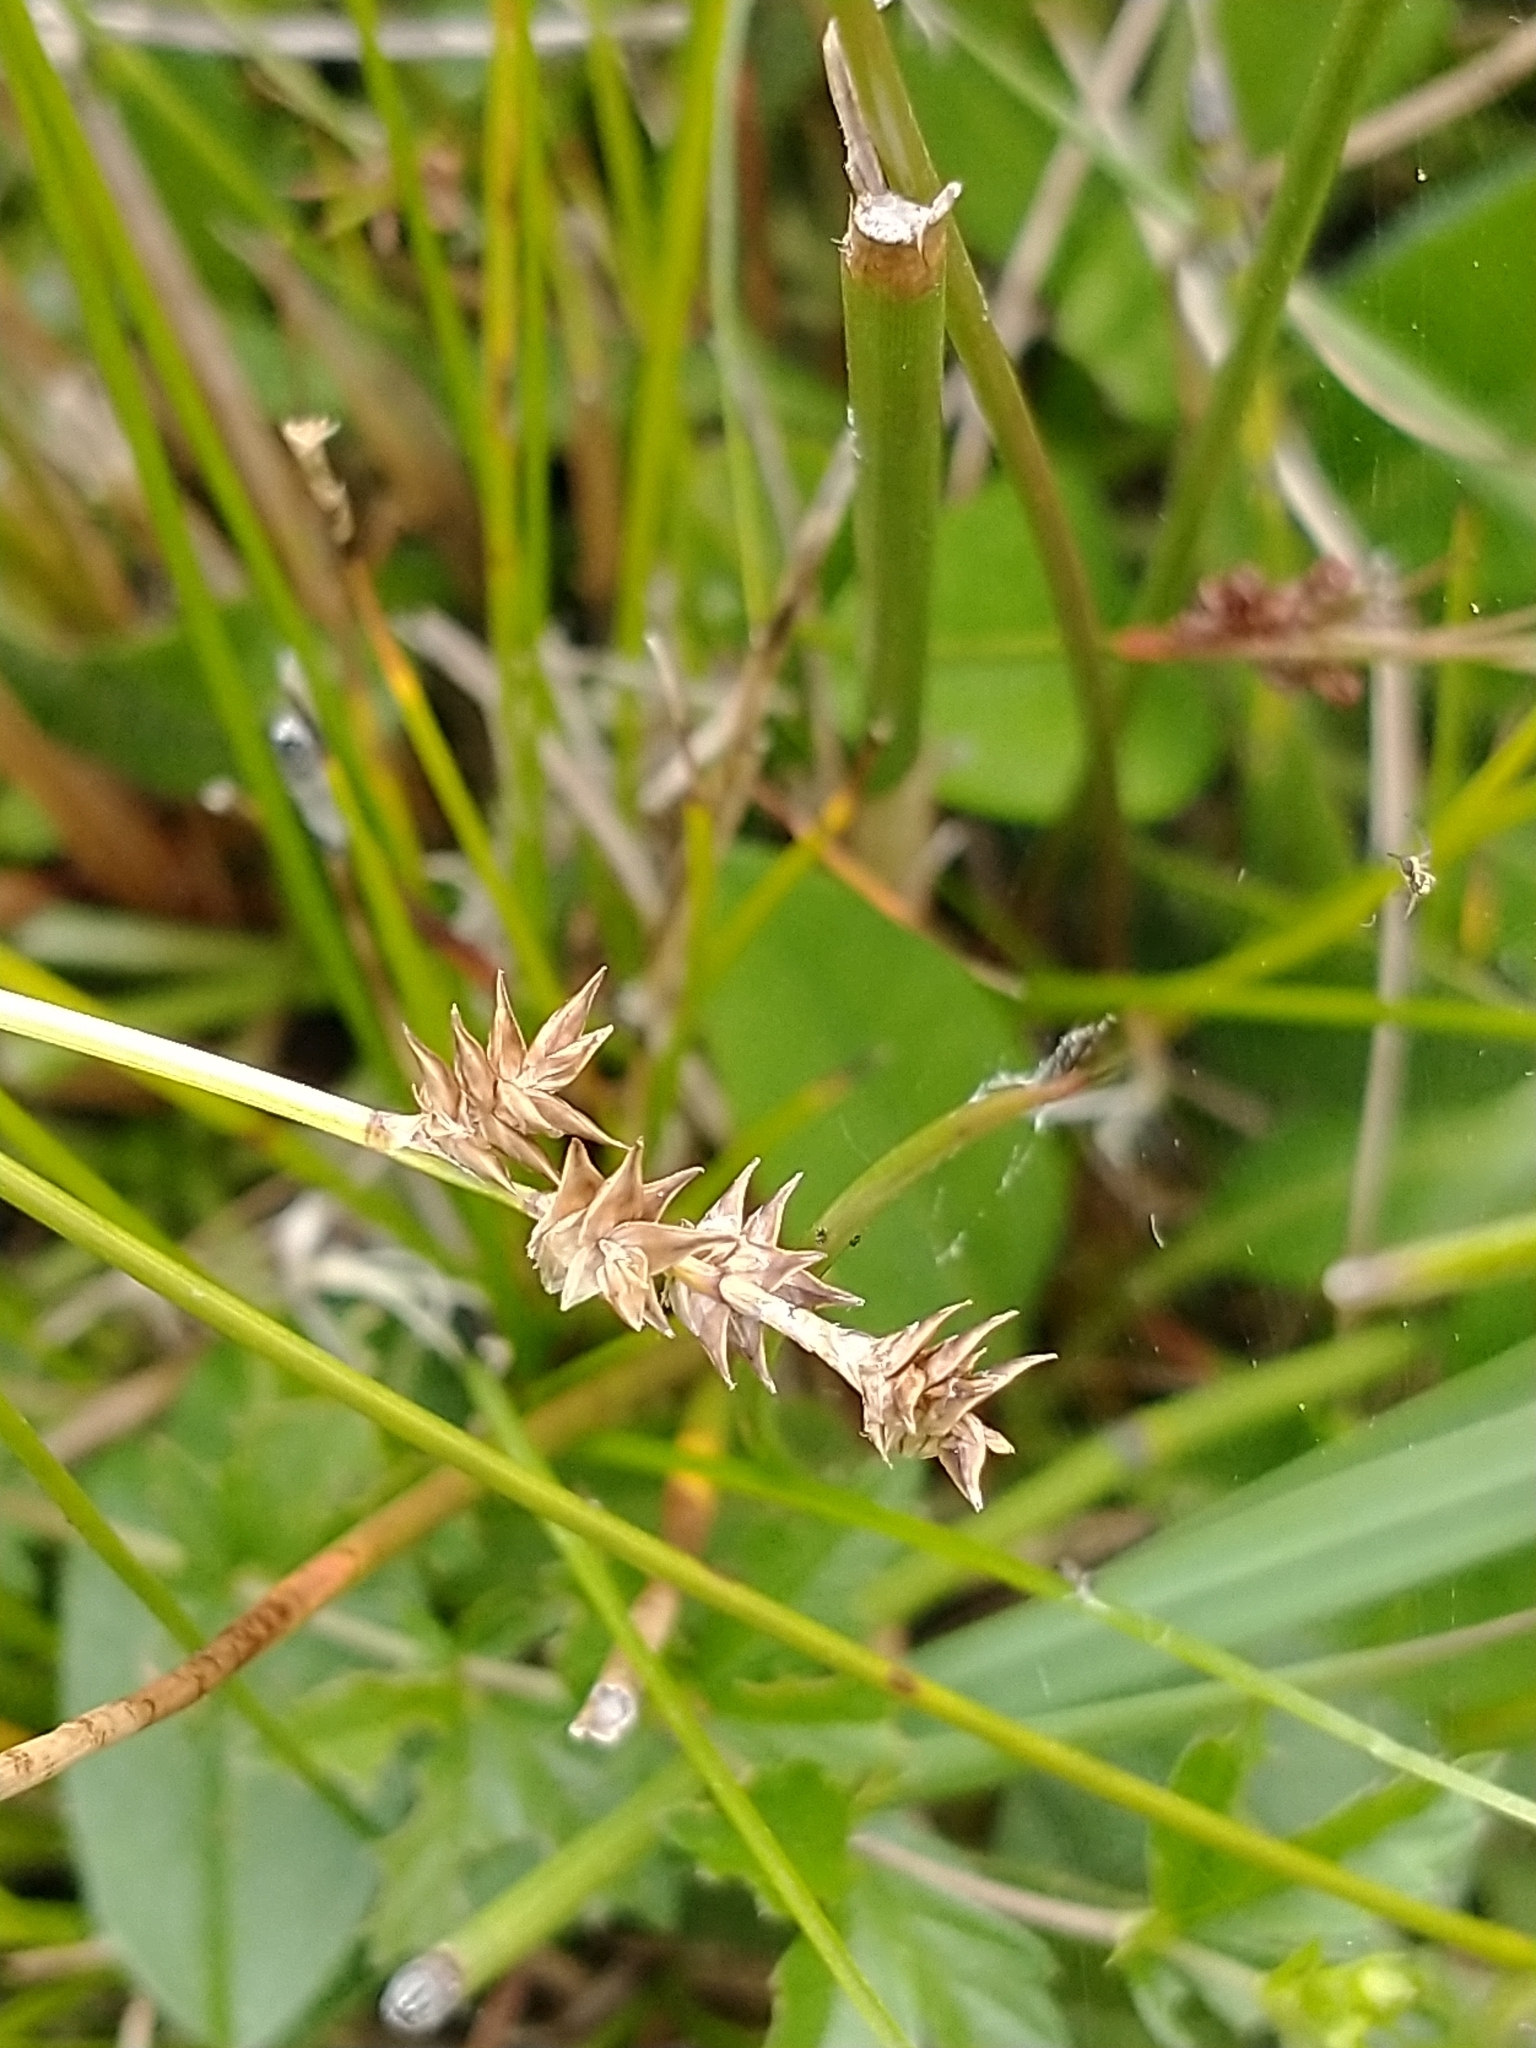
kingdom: Plantae
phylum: Tracheophyta
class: Liliopsida
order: Poales
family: Cyperaceae
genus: Carex
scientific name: Carex echinata
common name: Star sedge
